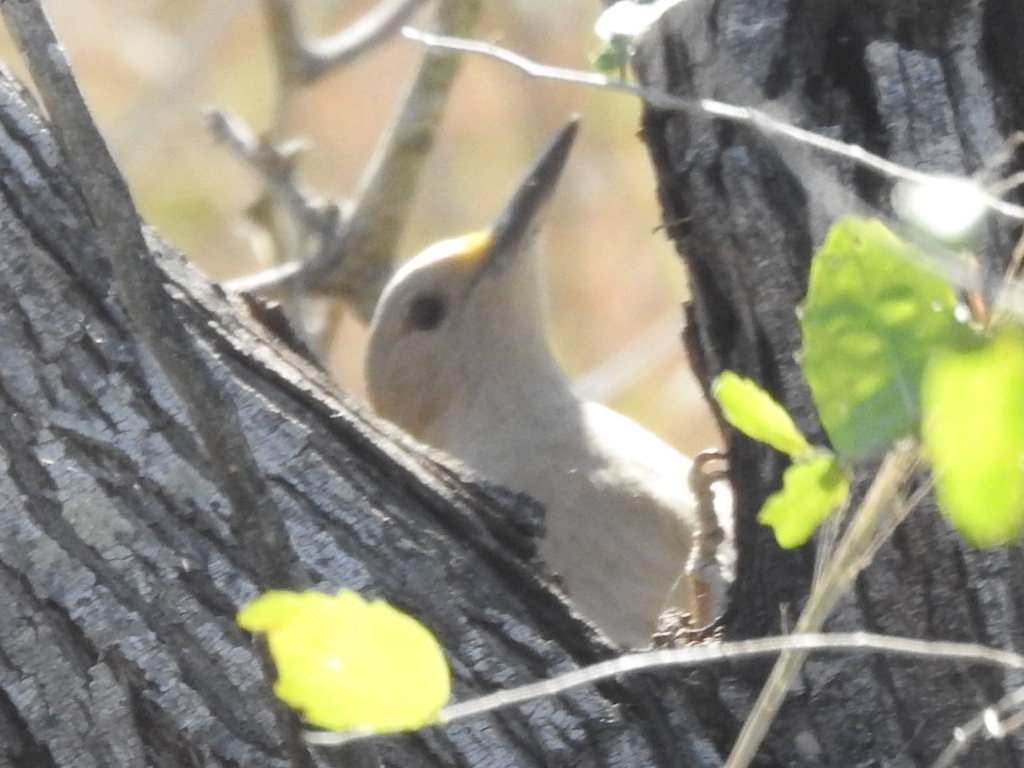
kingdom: Animalia
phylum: Chordata
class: Aves
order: Piciformes
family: Picidae
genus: Melanerpes
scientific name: Melanerpes aurifrons
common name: Golden-fronted woodpecker
